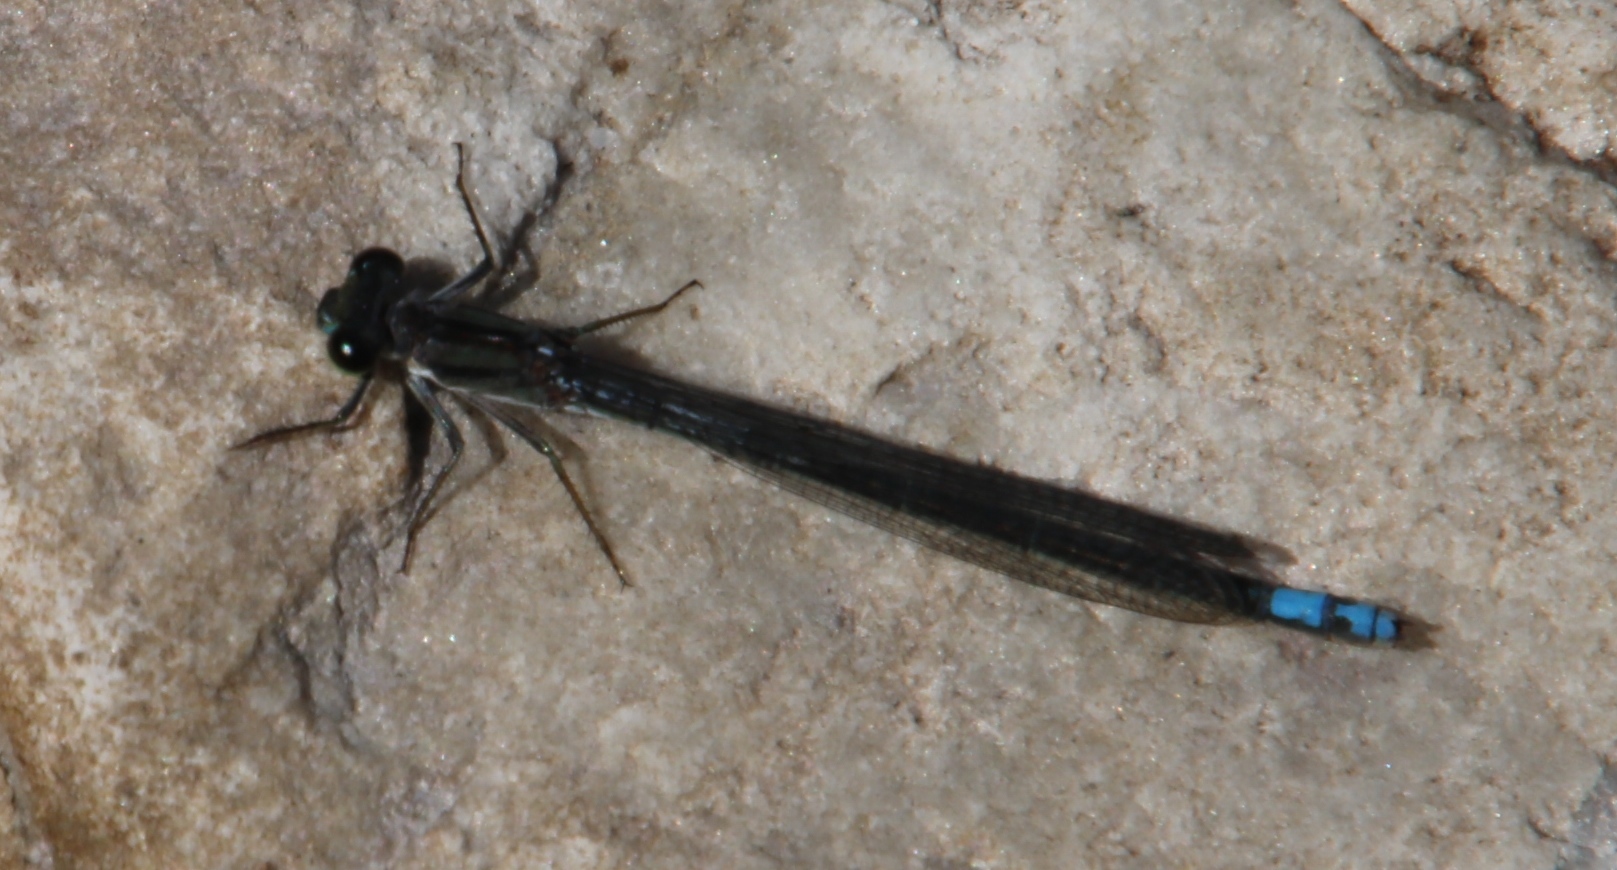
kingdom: Animalia
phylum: Arthropoda
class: Insecta
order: Odonata
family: Coenagrionidae
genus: Pseudagrion
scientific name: Pseudagrion furcigerum
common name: Palmiet sprite
